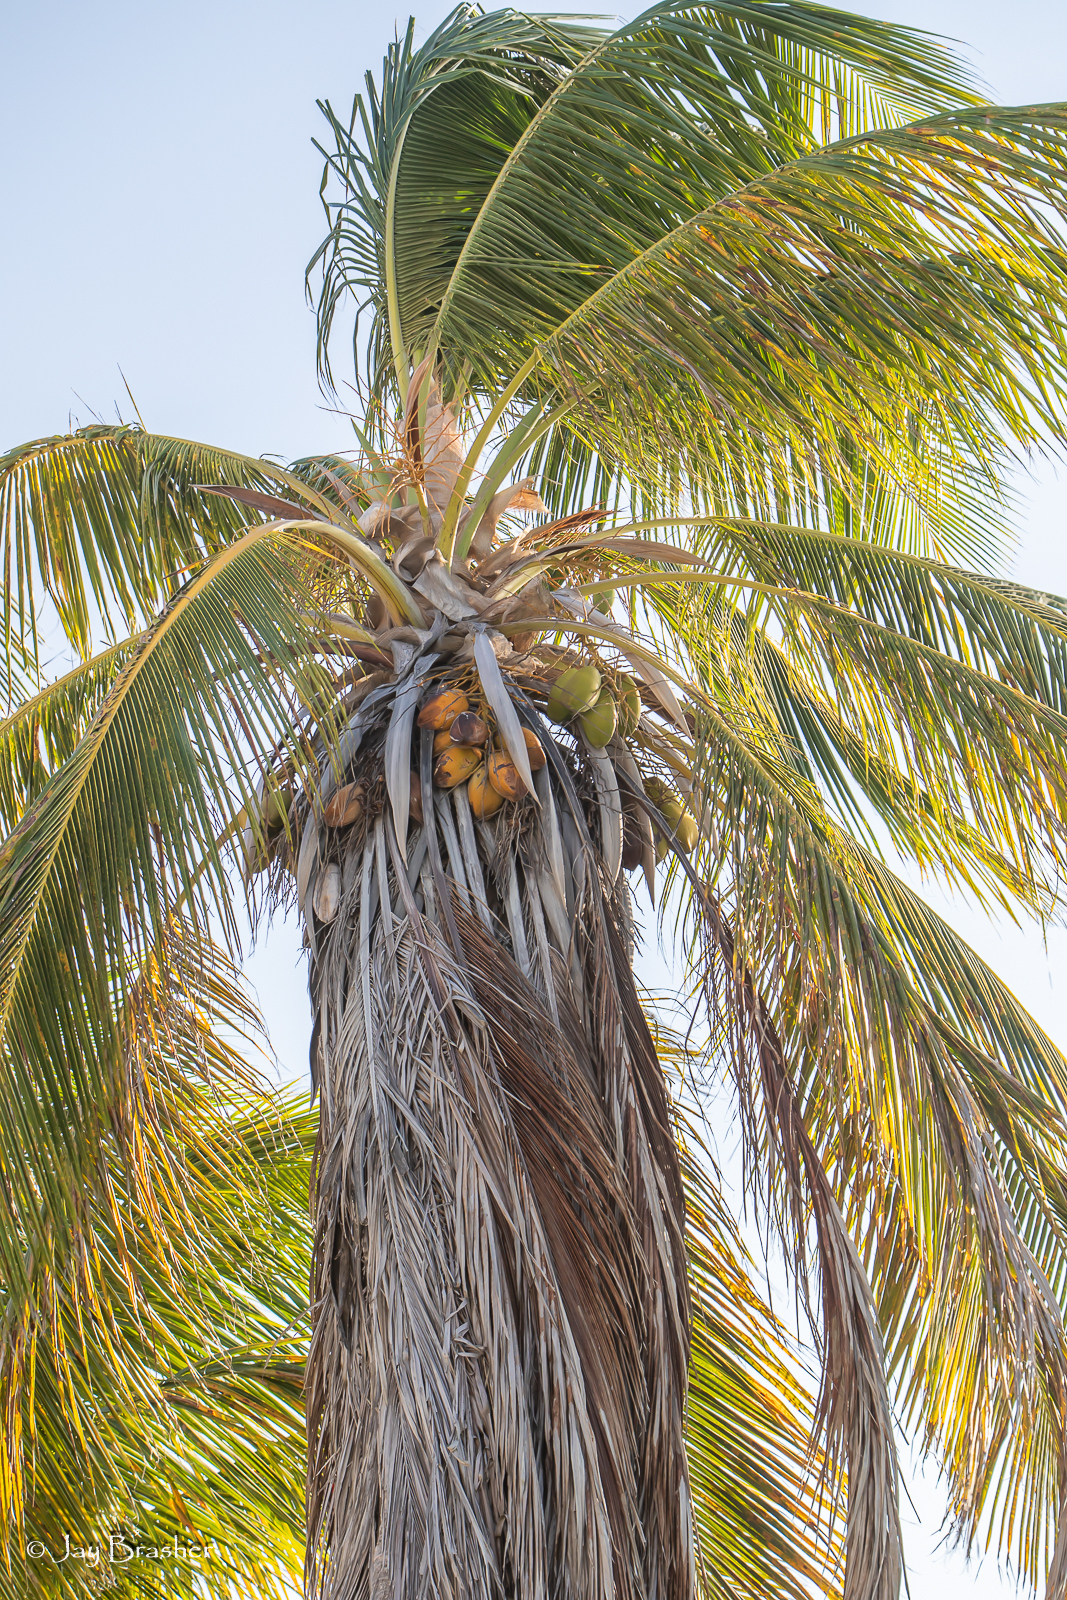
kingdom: Plantae
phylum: Tracheophyta
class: Liliopsida
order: Arecales
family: Arecaceae
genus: Cocos
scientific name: Cocos nucifera
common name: Coconut palm
